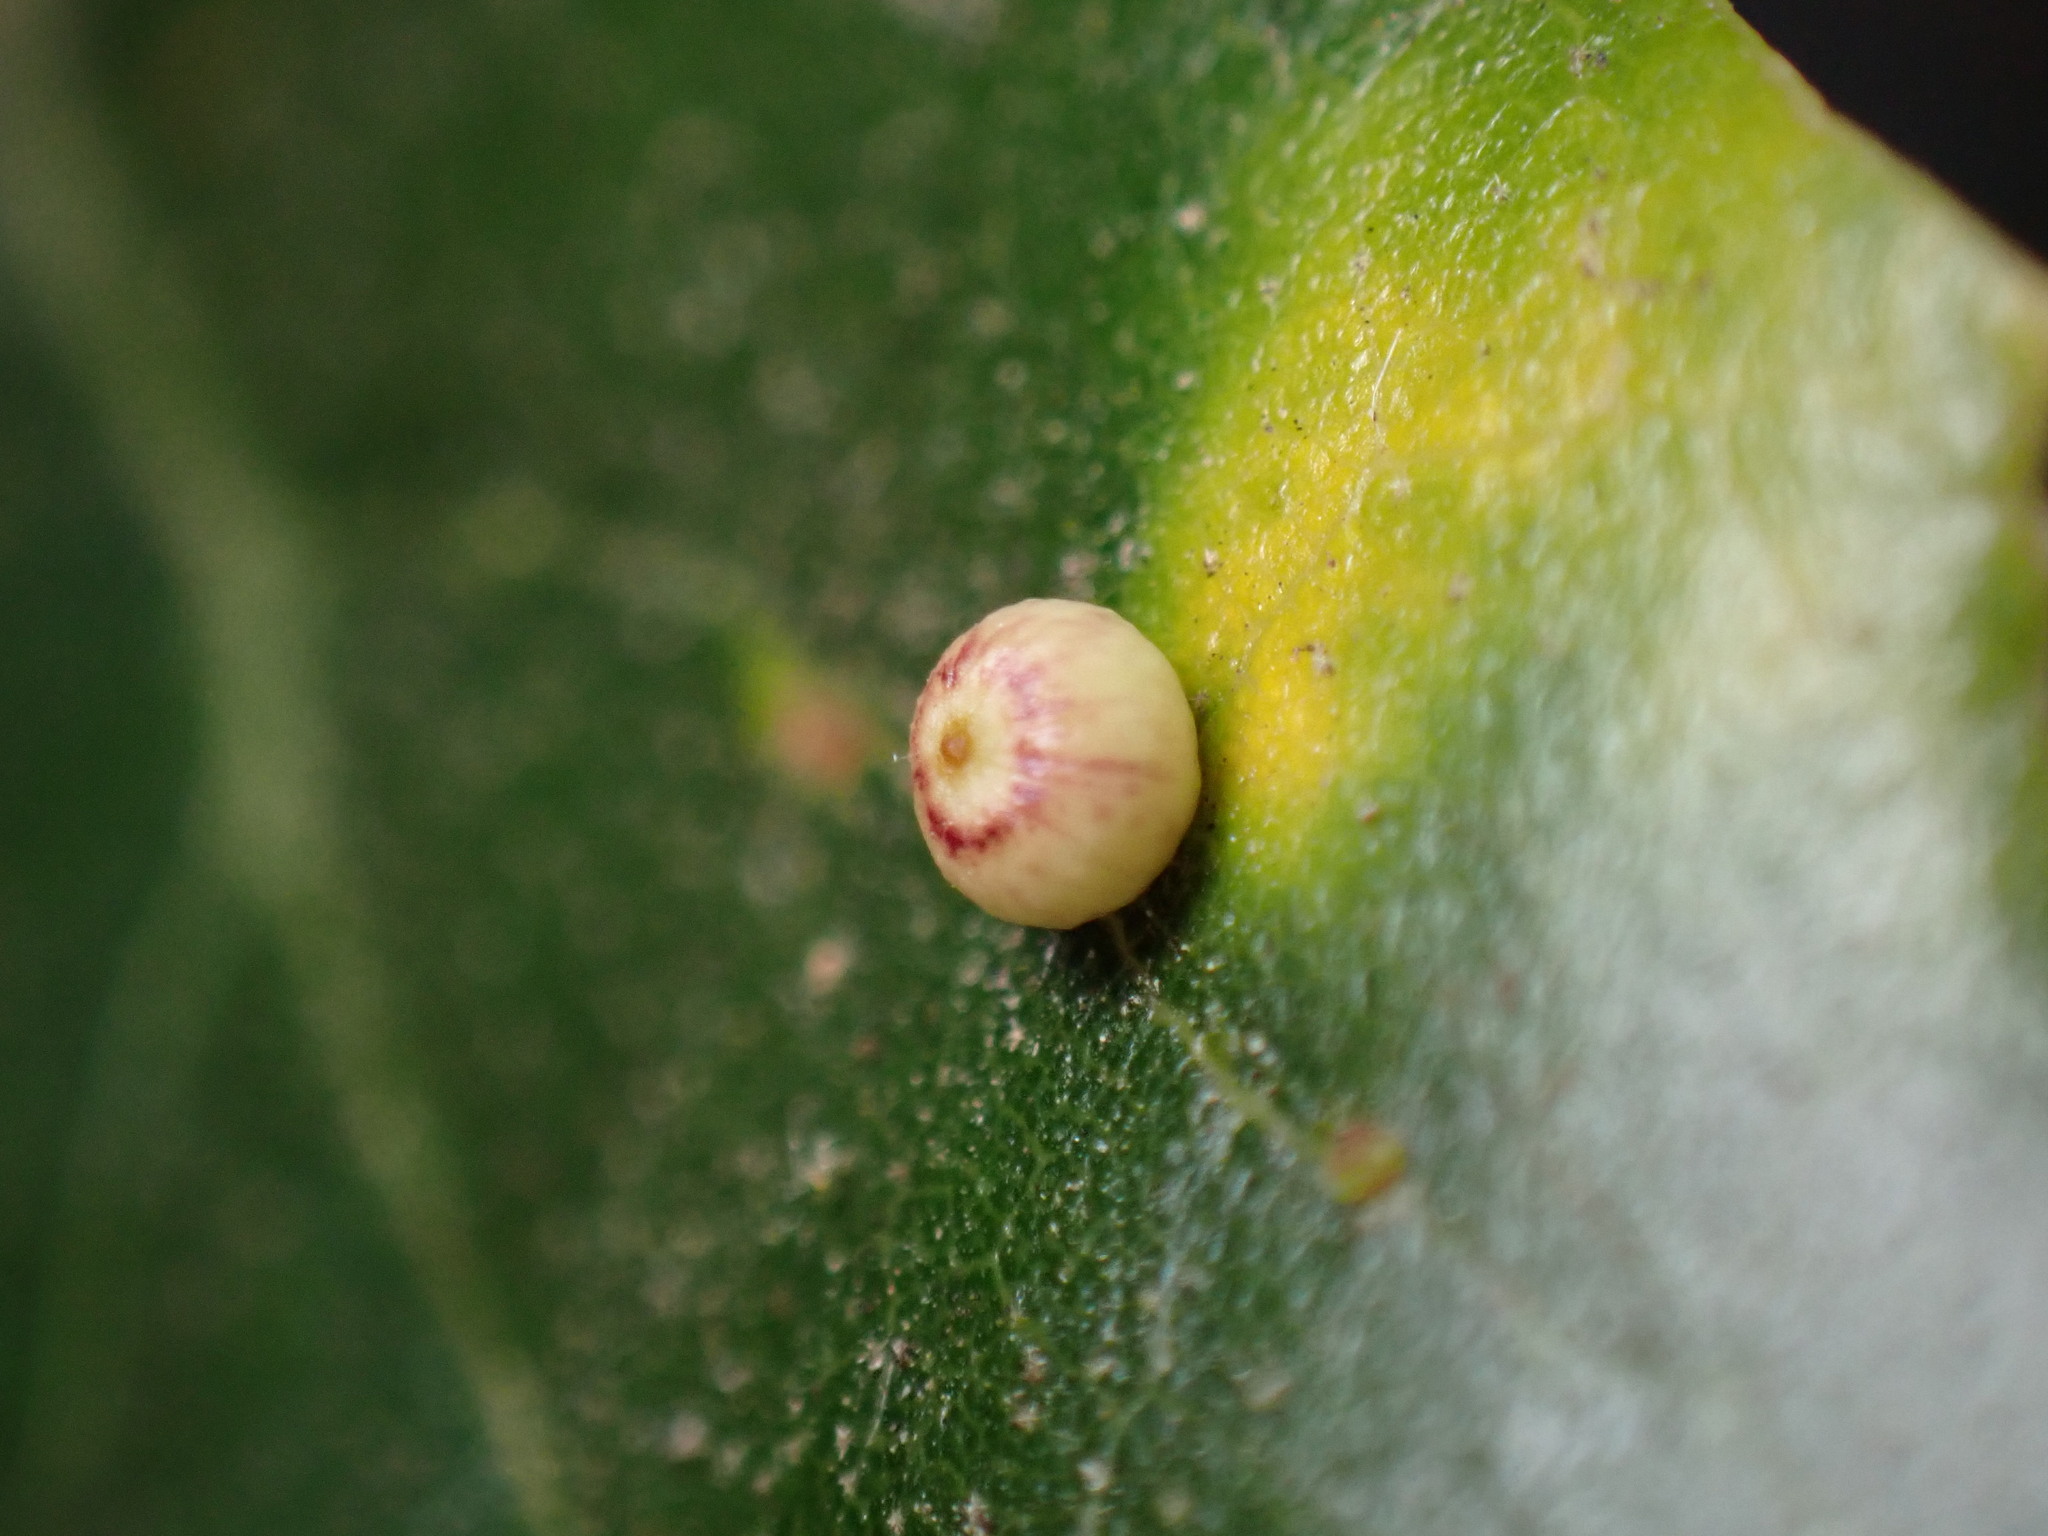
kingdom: Animalia
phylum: Arthropoda
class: Insecta
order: Hymenoptera
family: Cynipidae
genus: Dryocosmus
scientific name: Dryocosmus
